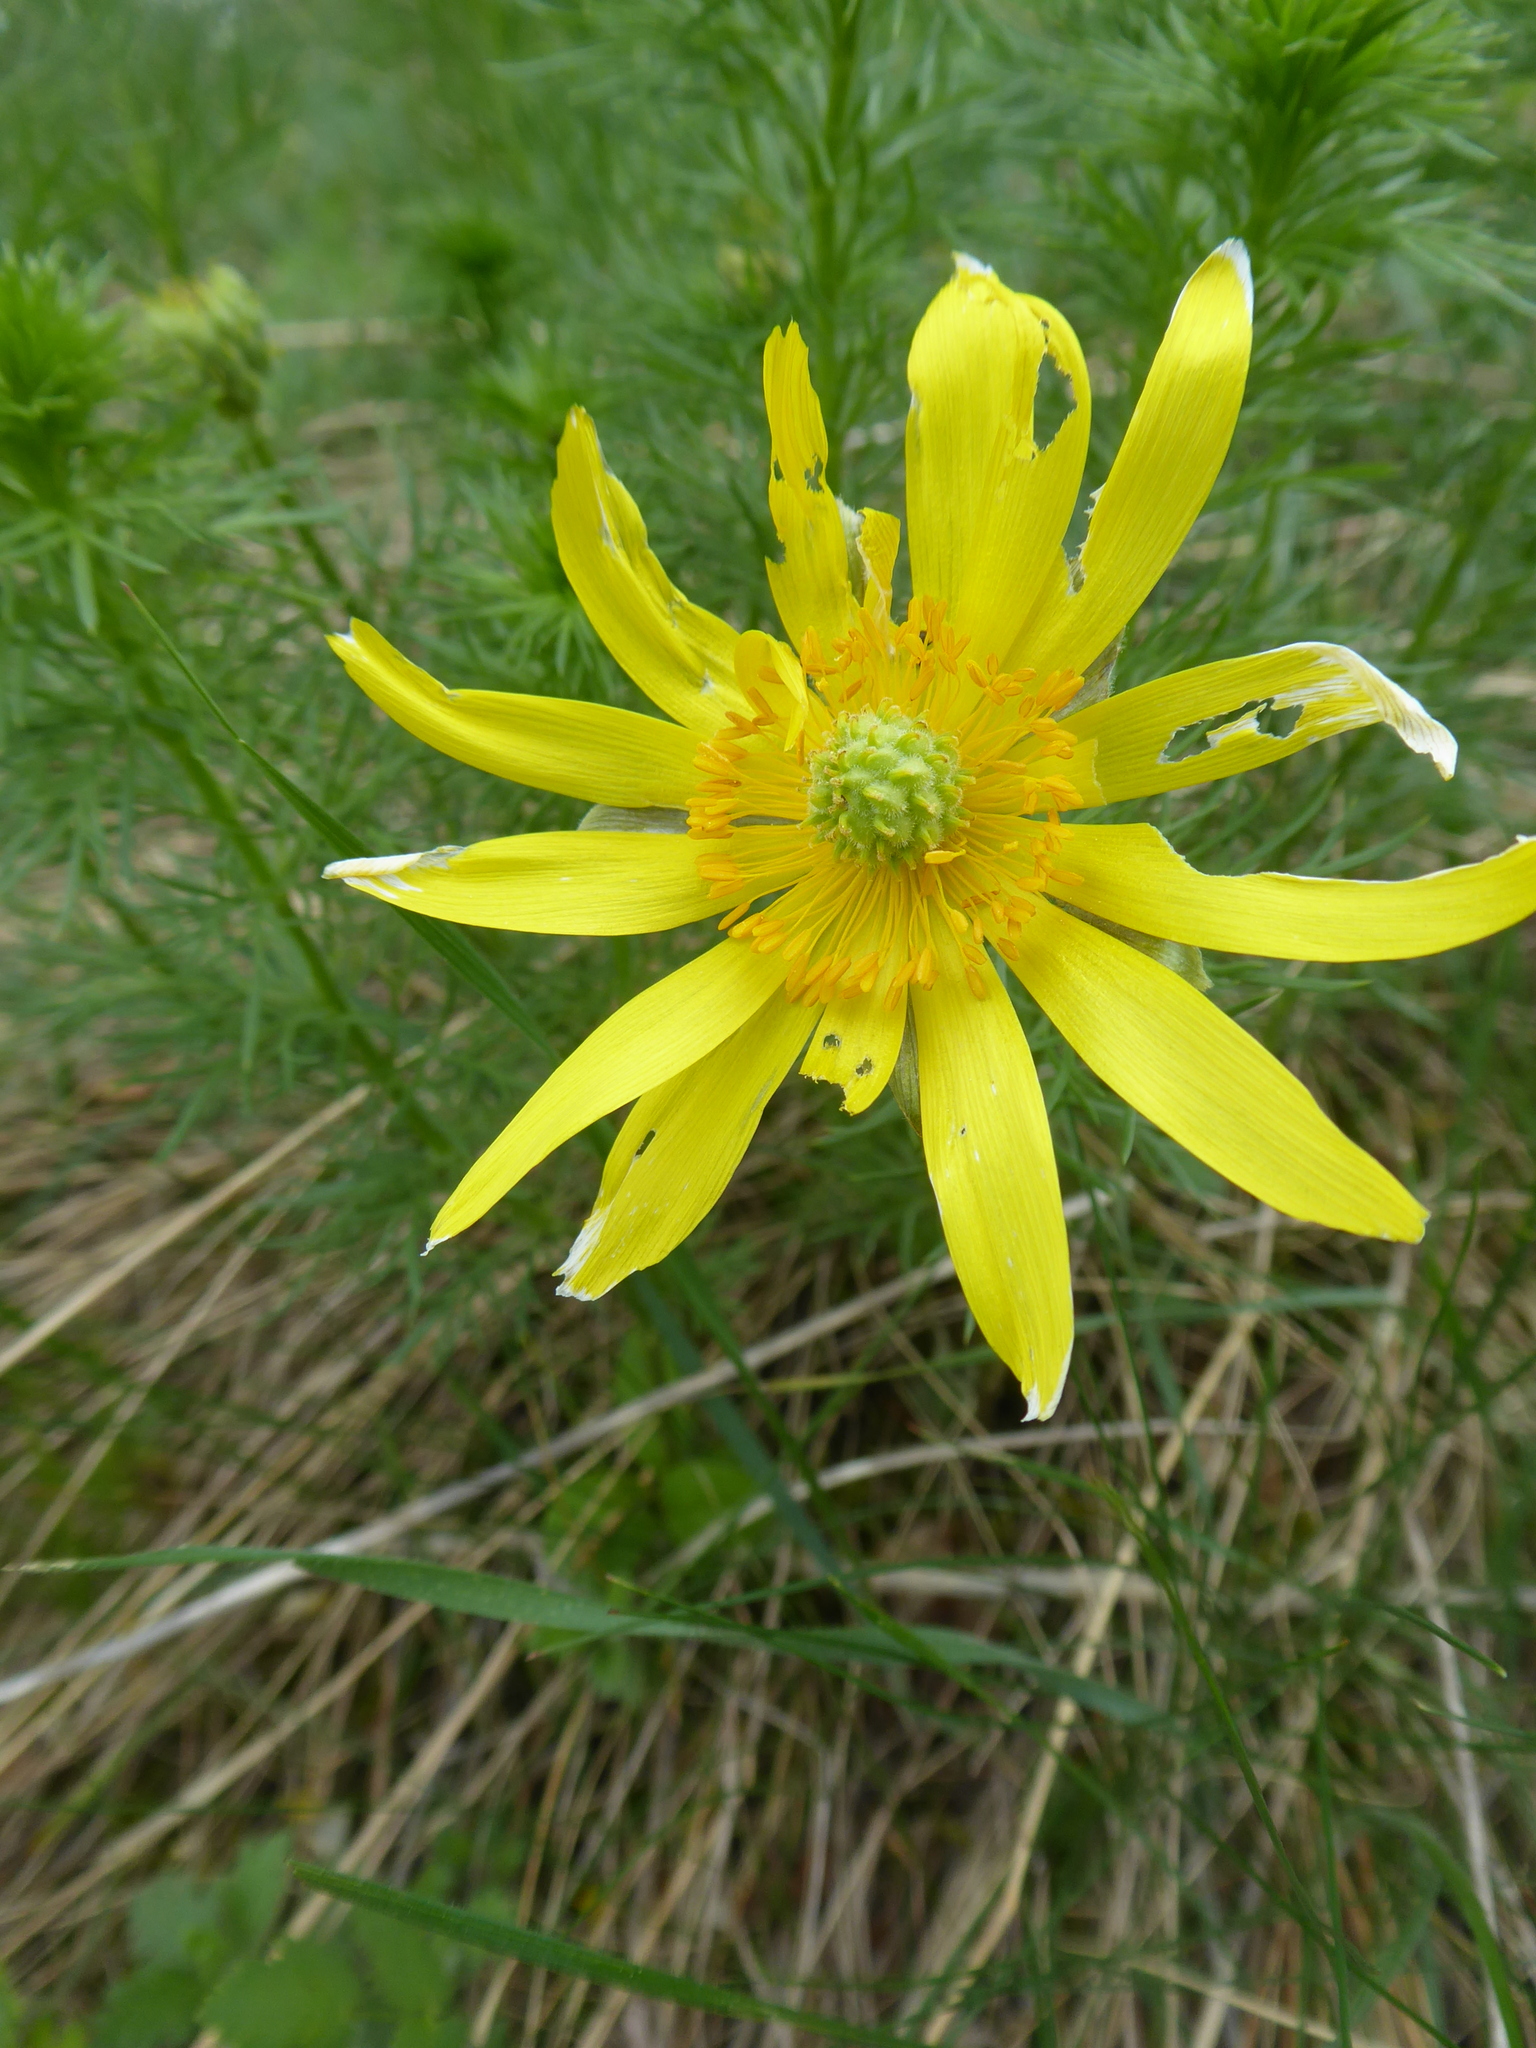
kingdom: Plantae
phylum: Tracheophyta
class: Magnoliopsida
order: Ranunculales
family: Ranunculaceae
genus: Adonis
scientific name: Adonis vernalis
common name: Yellow pheasants-eye
